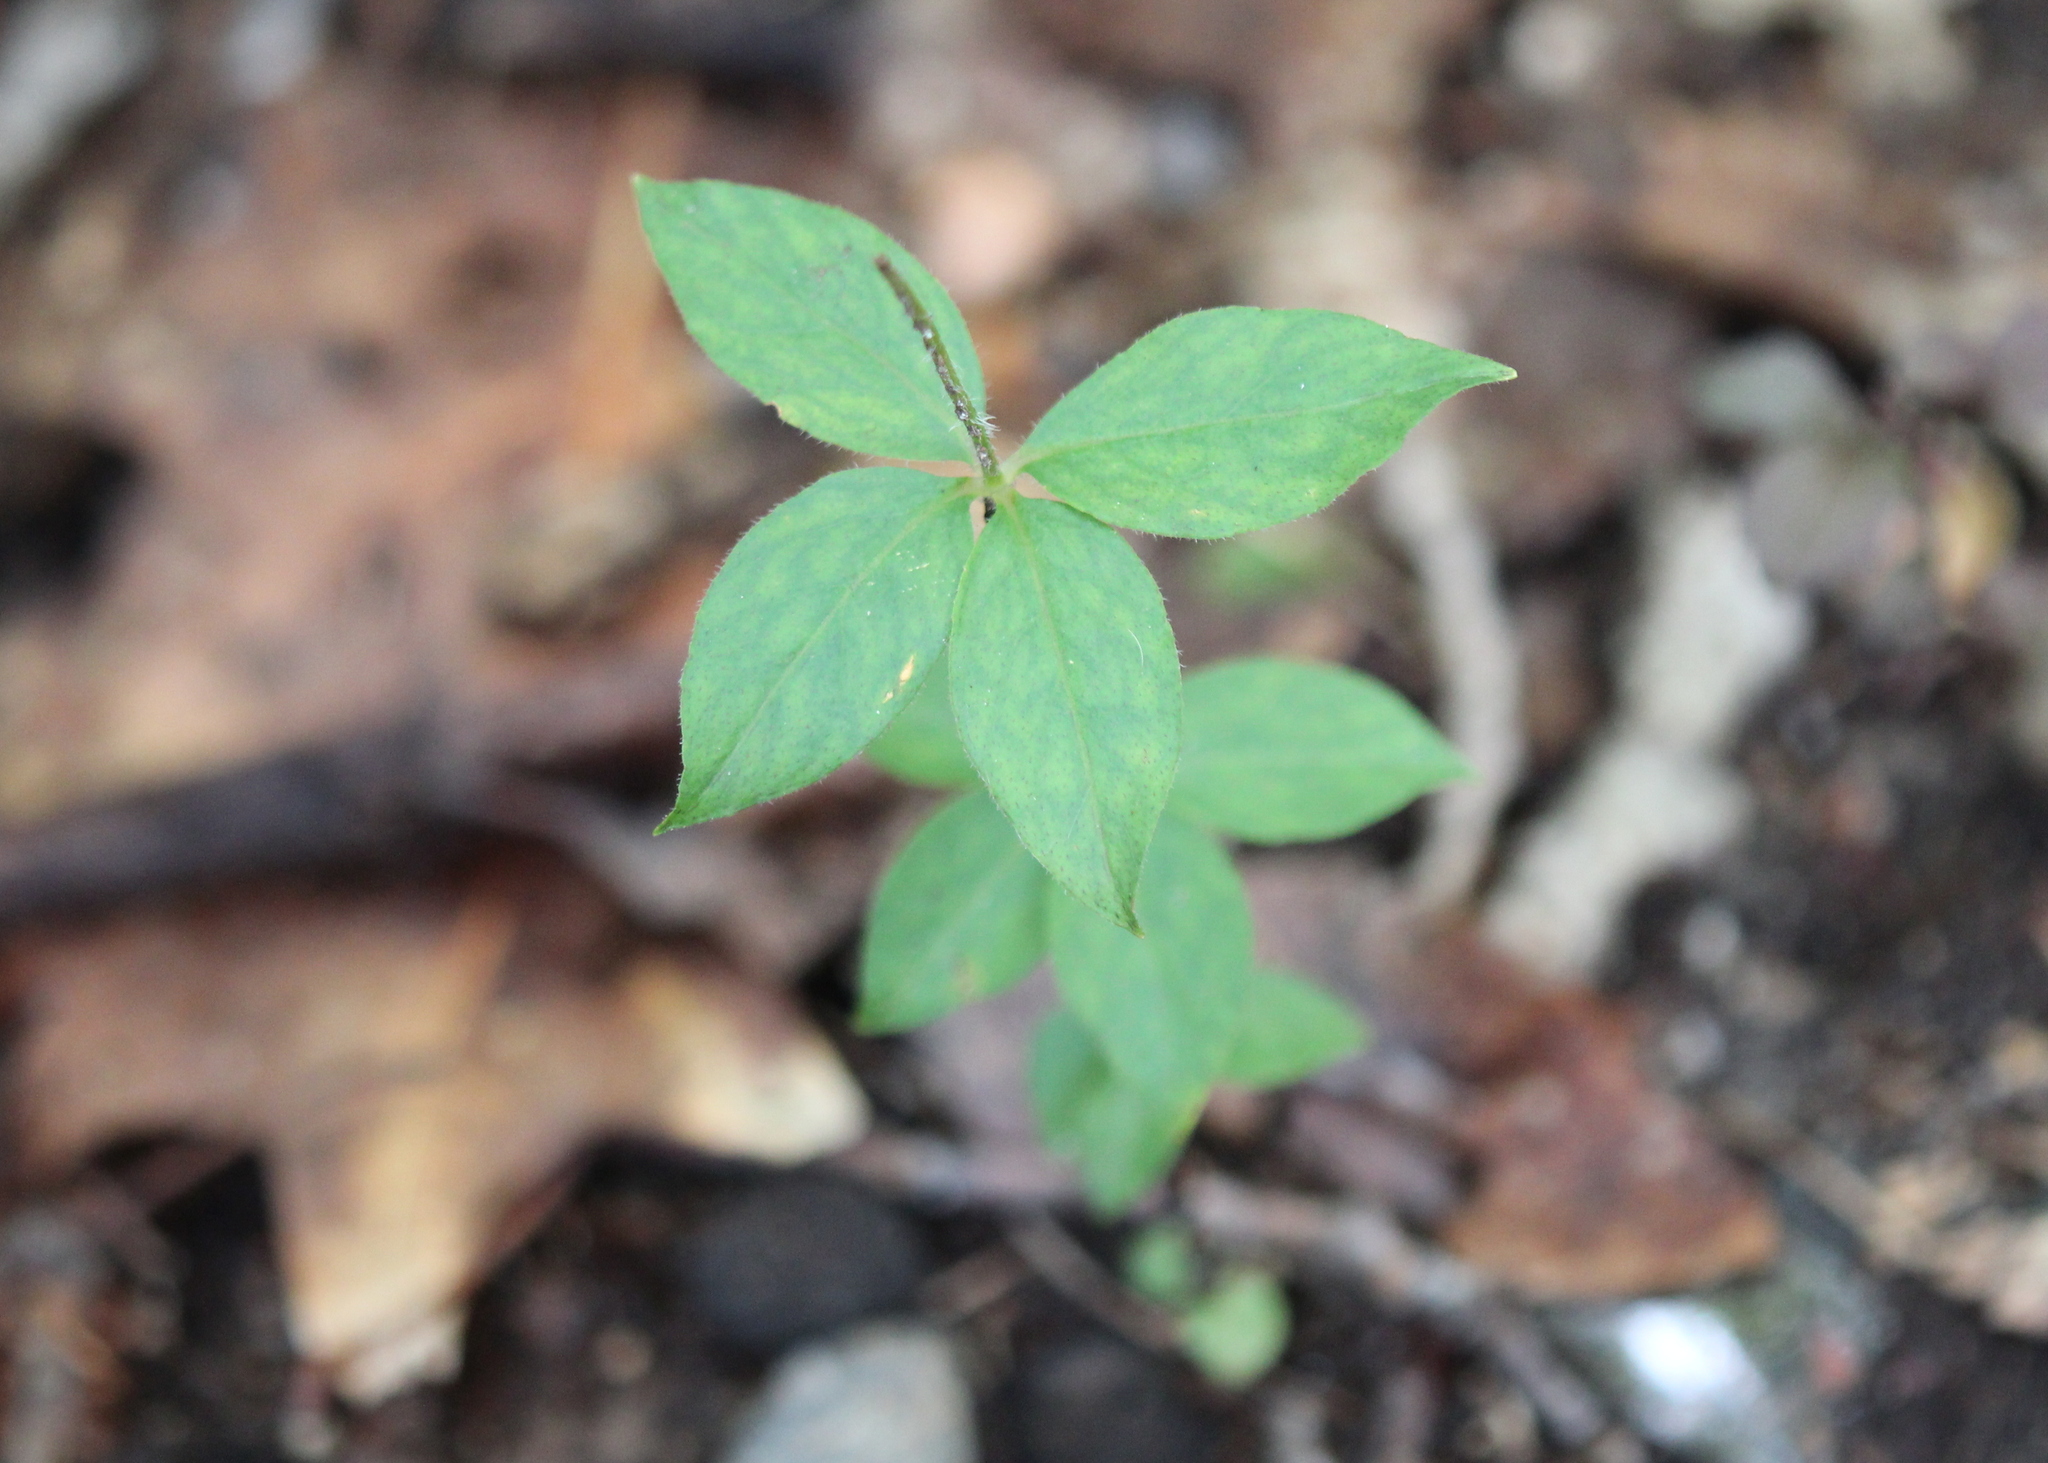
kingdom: Plantae
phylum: Tracheophyta
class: Magnoliopsida
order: Ericales
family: Primulaceae
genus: Lysimachia
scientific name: Lysimachia quadrifolia
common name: Whorled loosestrife
